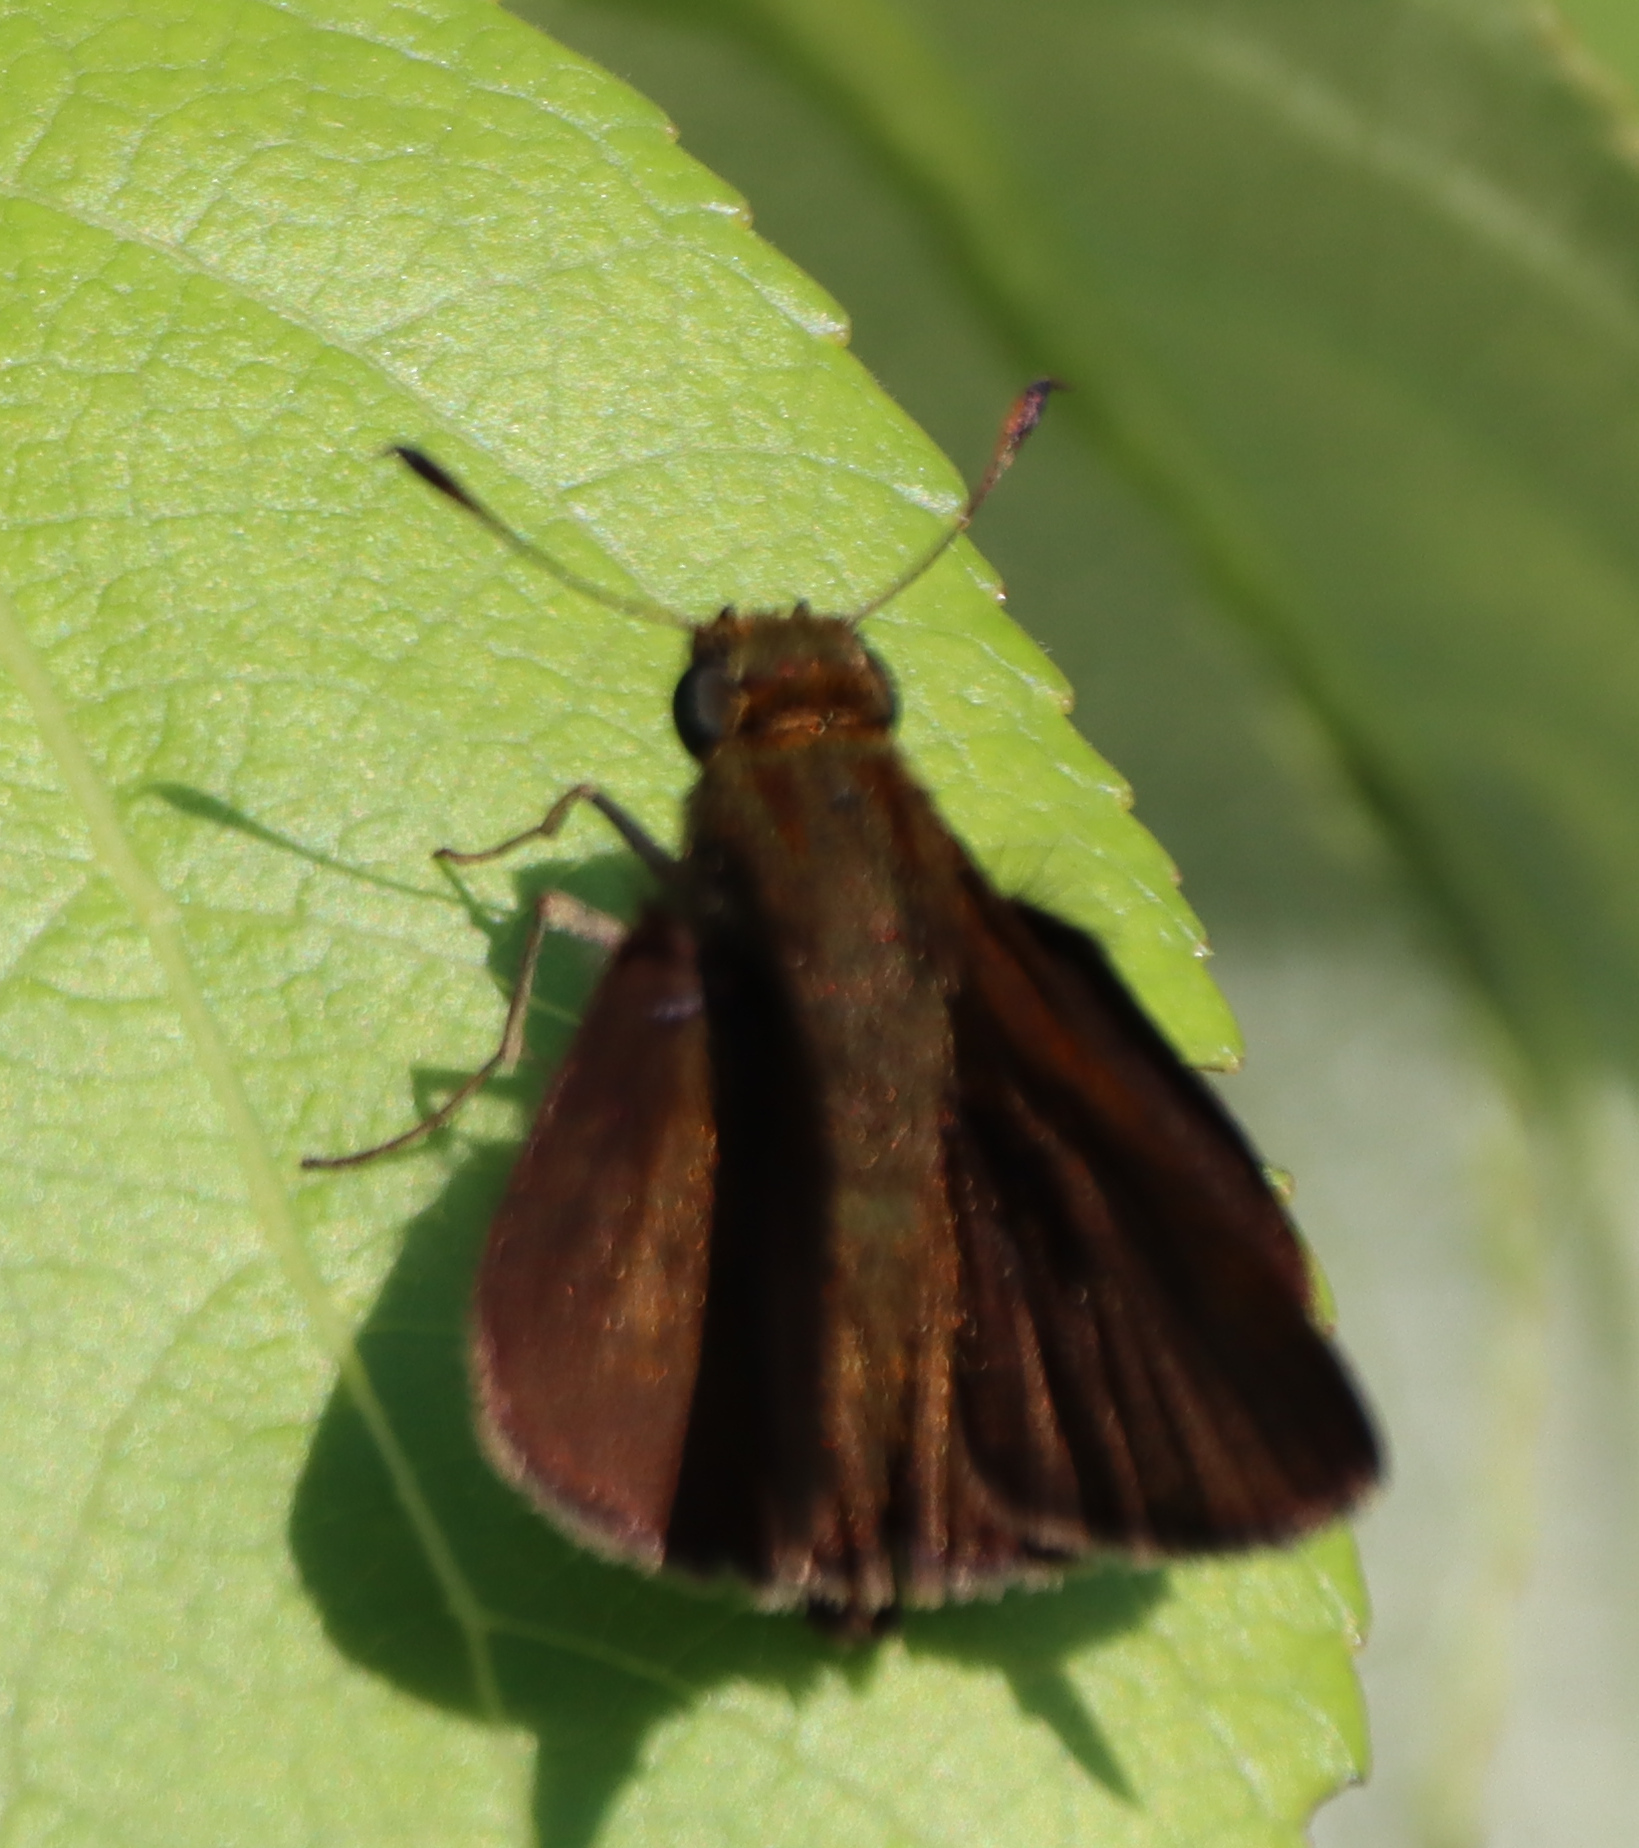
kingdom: Animalia
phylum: Arthropoda
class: Insecta
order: Lepidoptera
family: Hesperiidae
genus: Euphyes
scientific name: Euphyes vestris
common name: Dun skipper
